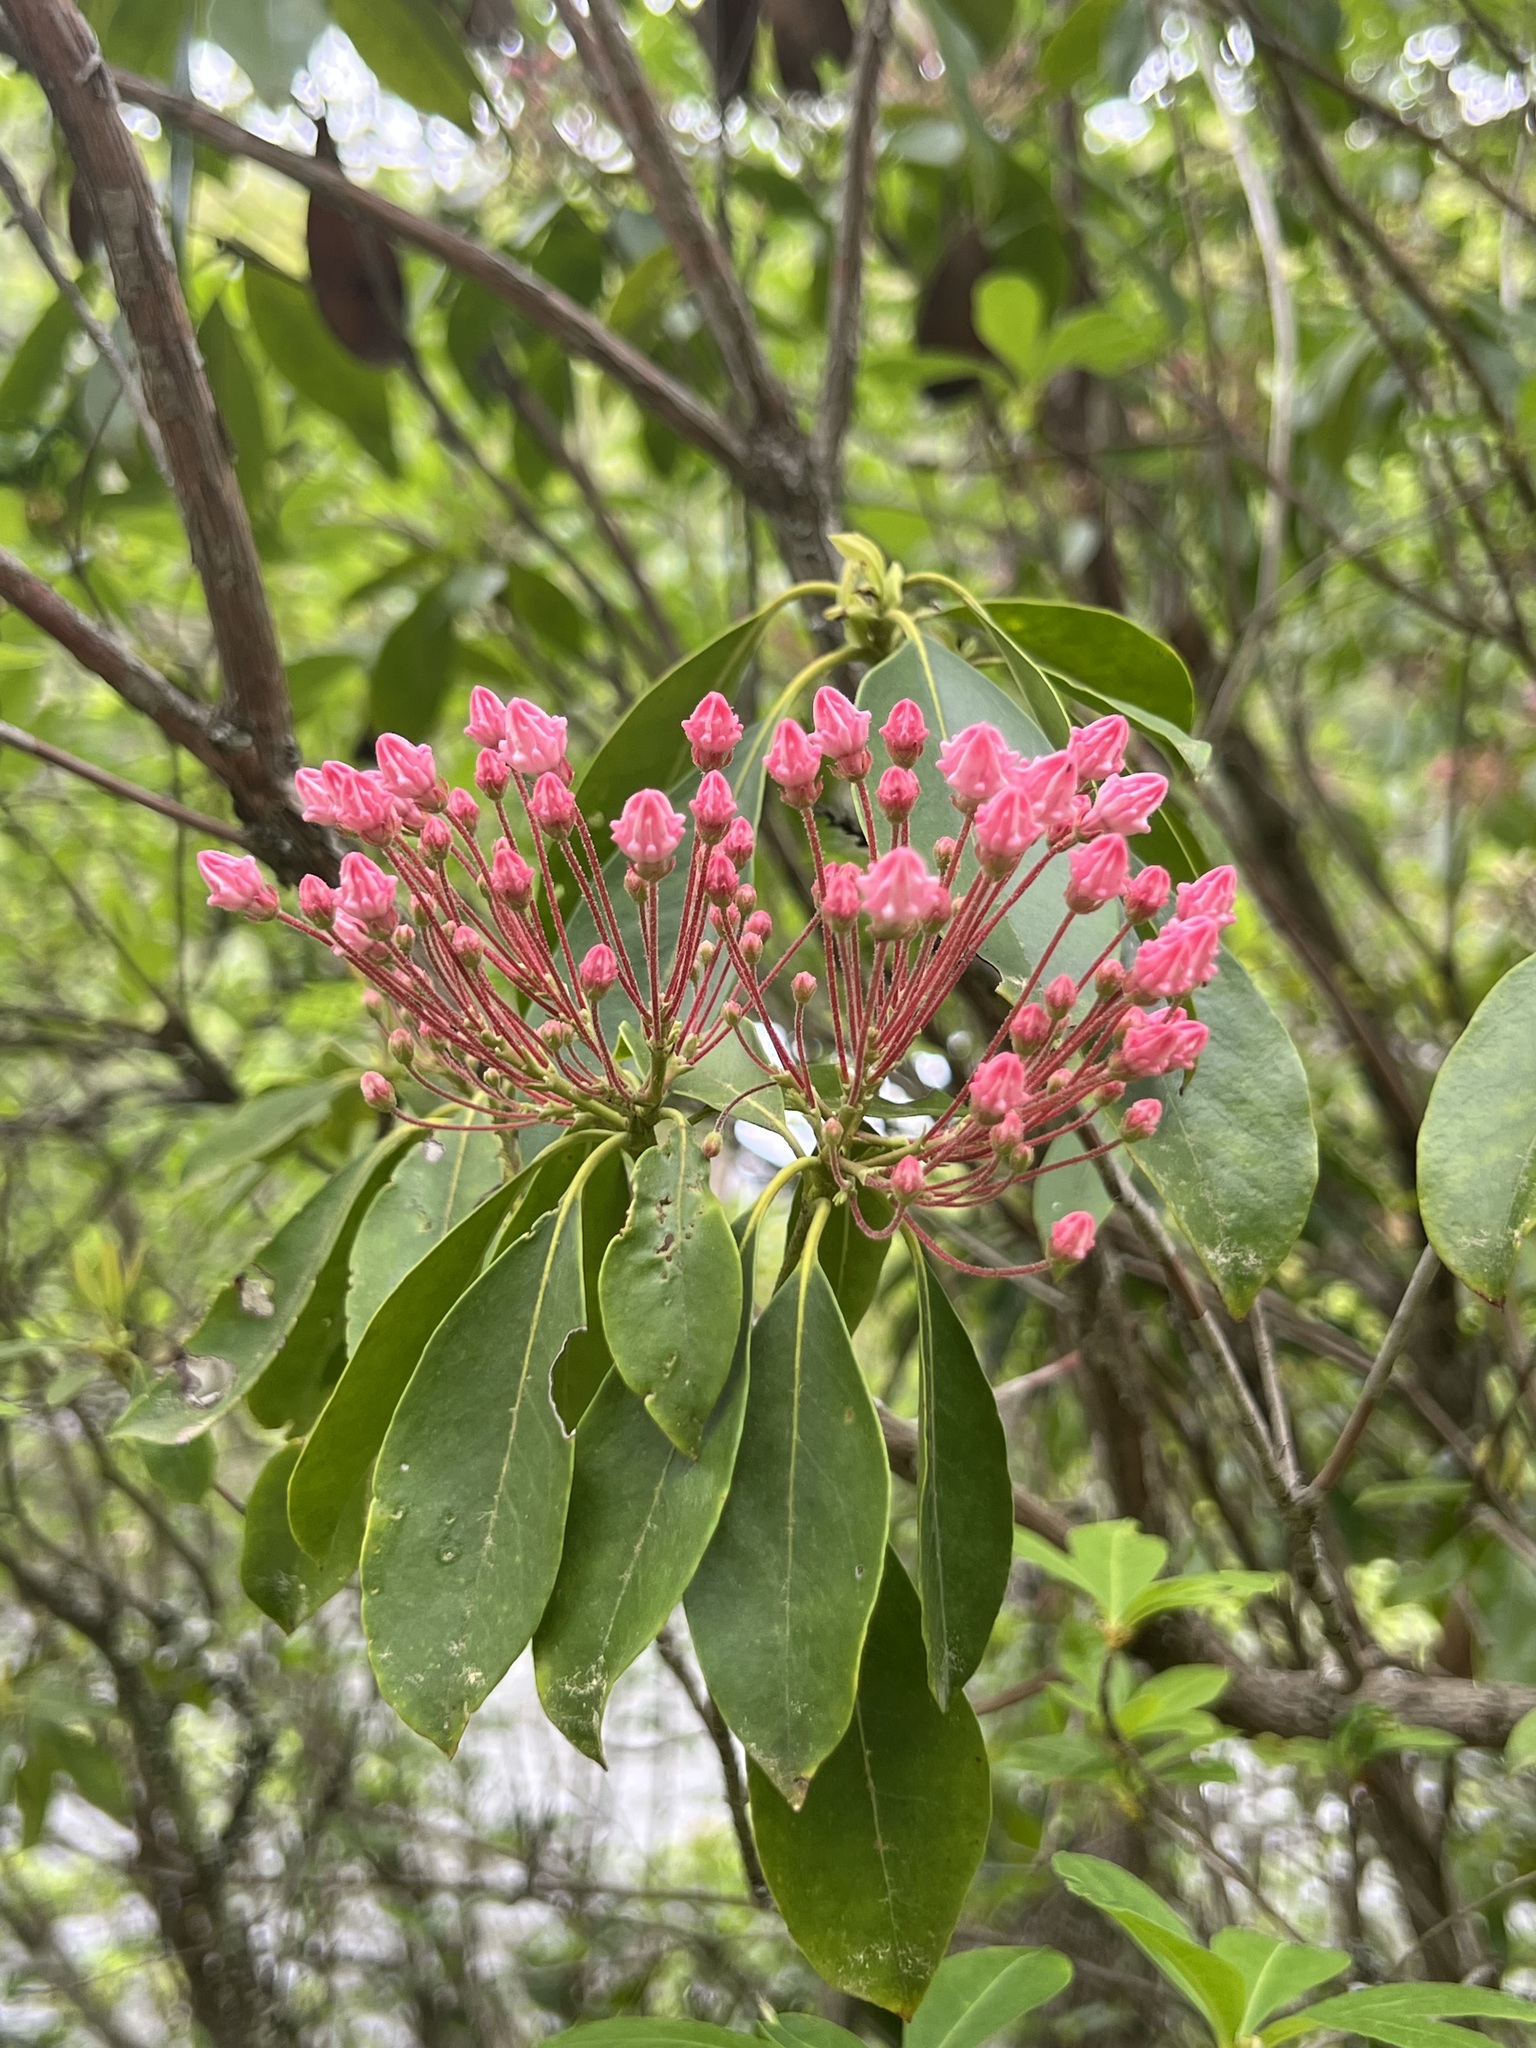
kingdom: Plantae
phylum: Tracheophyta
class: Magnoliopsida
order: Ericales
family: Ericaceae
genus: Kalmia
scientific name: Kalmia latifolia
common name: Mountain-laurel
